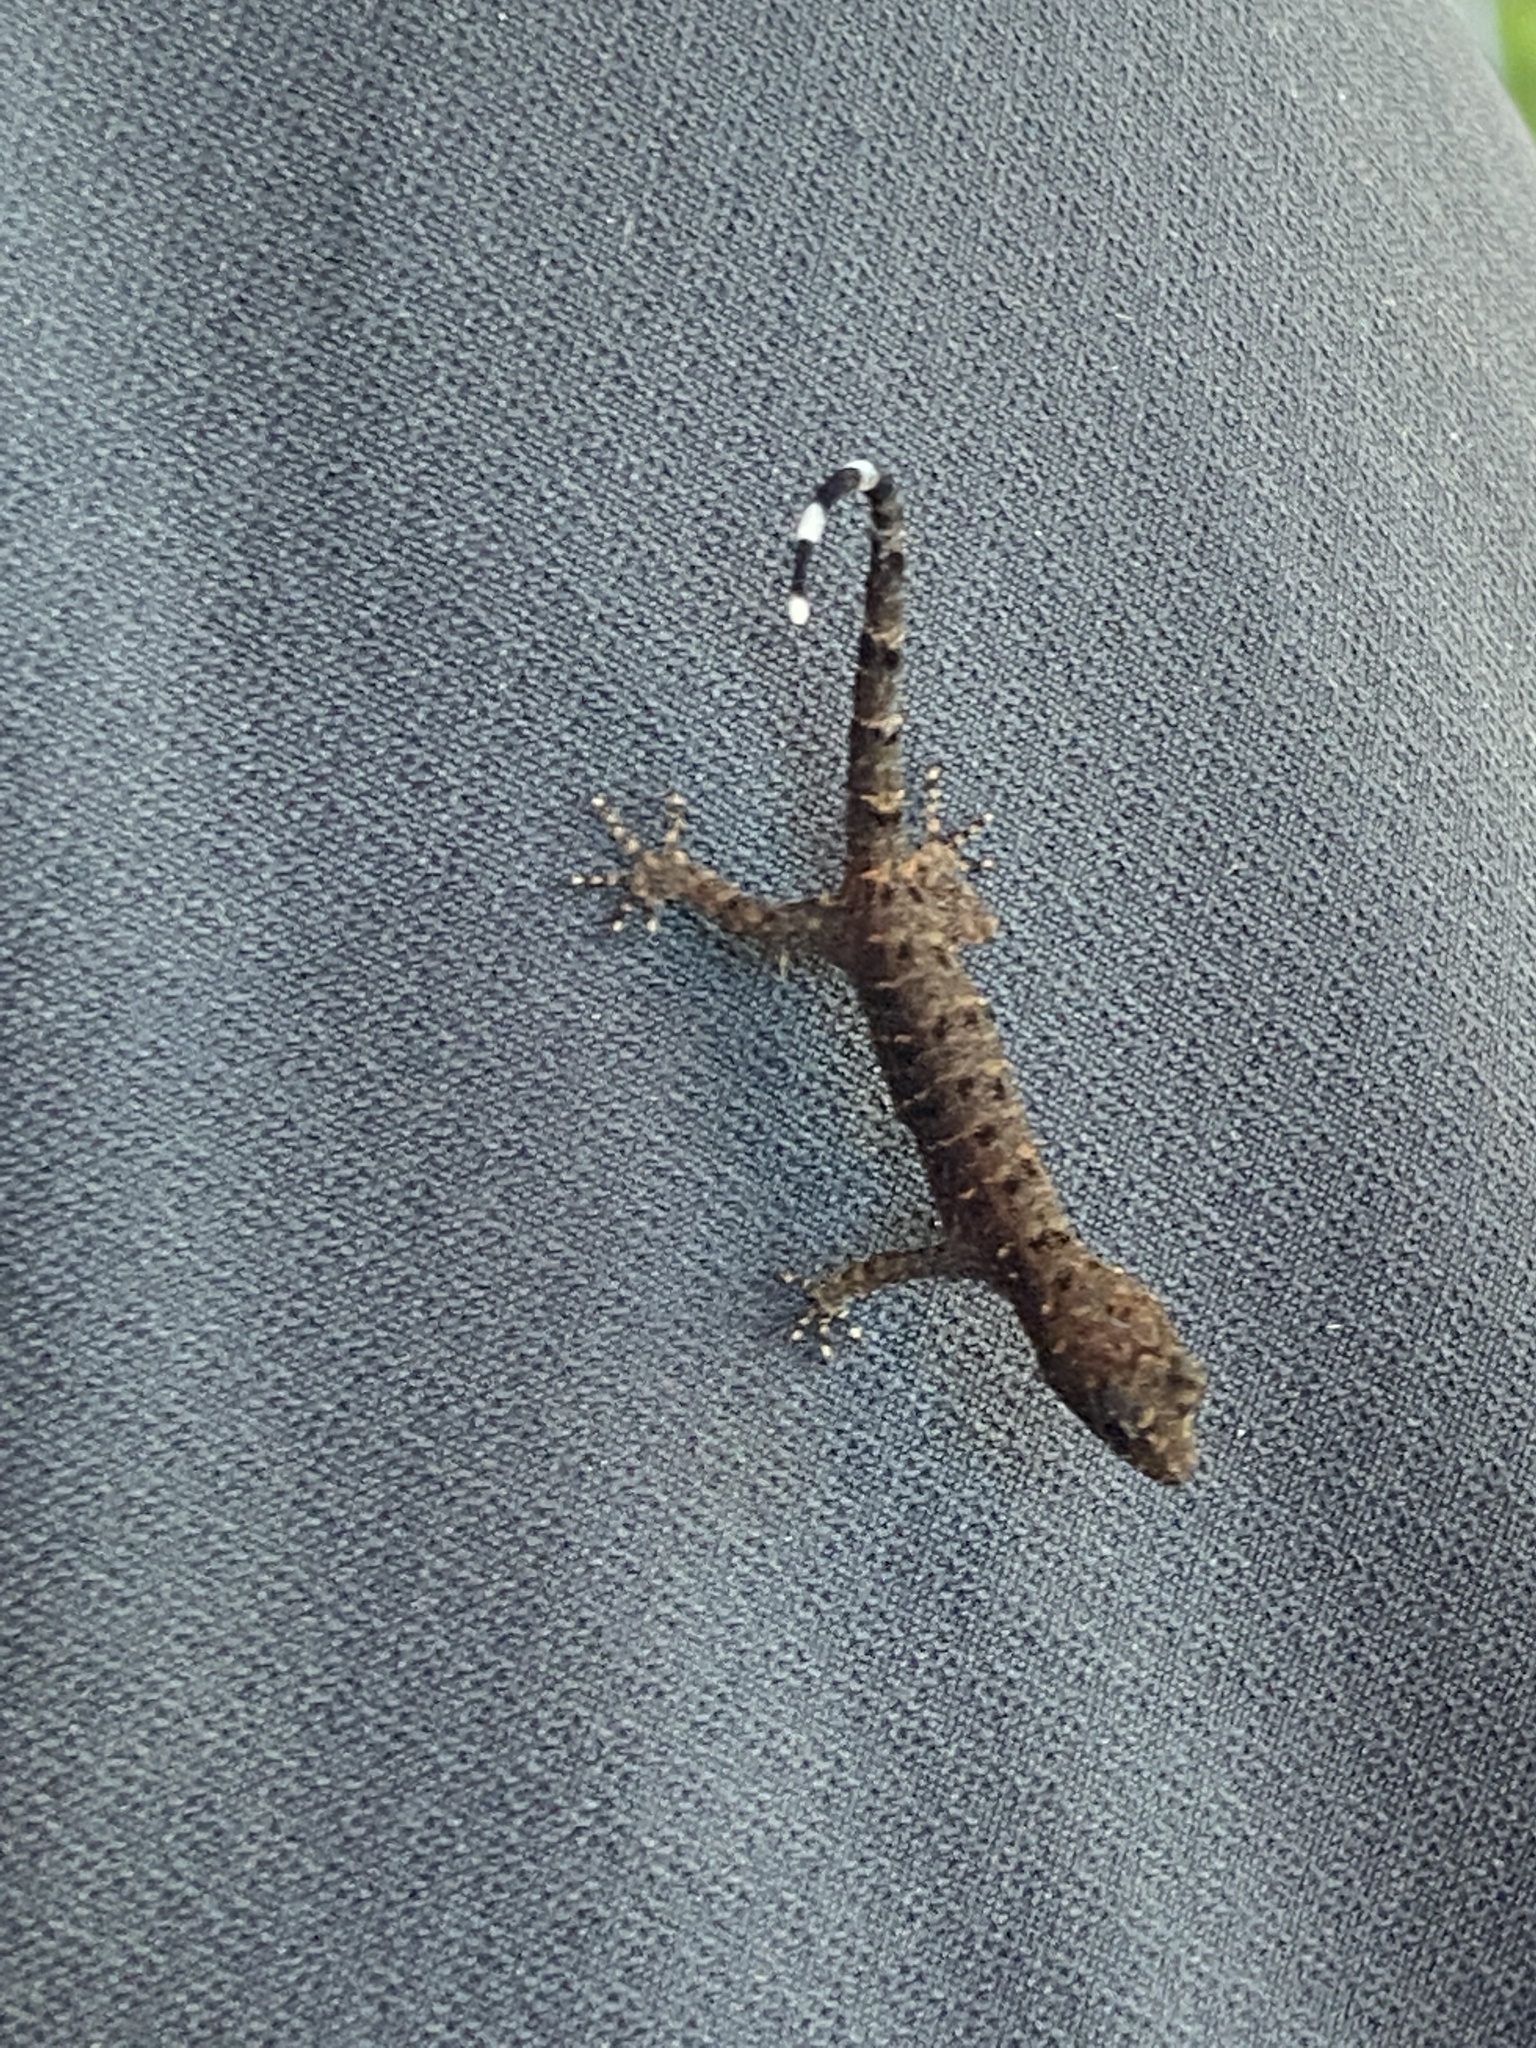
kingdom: Animalia
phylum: Chordata
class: Squamata
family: Sphaerodactylidae
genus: Gonatodes
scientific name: Gonatodes hasemani
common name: Haseman's gecko
